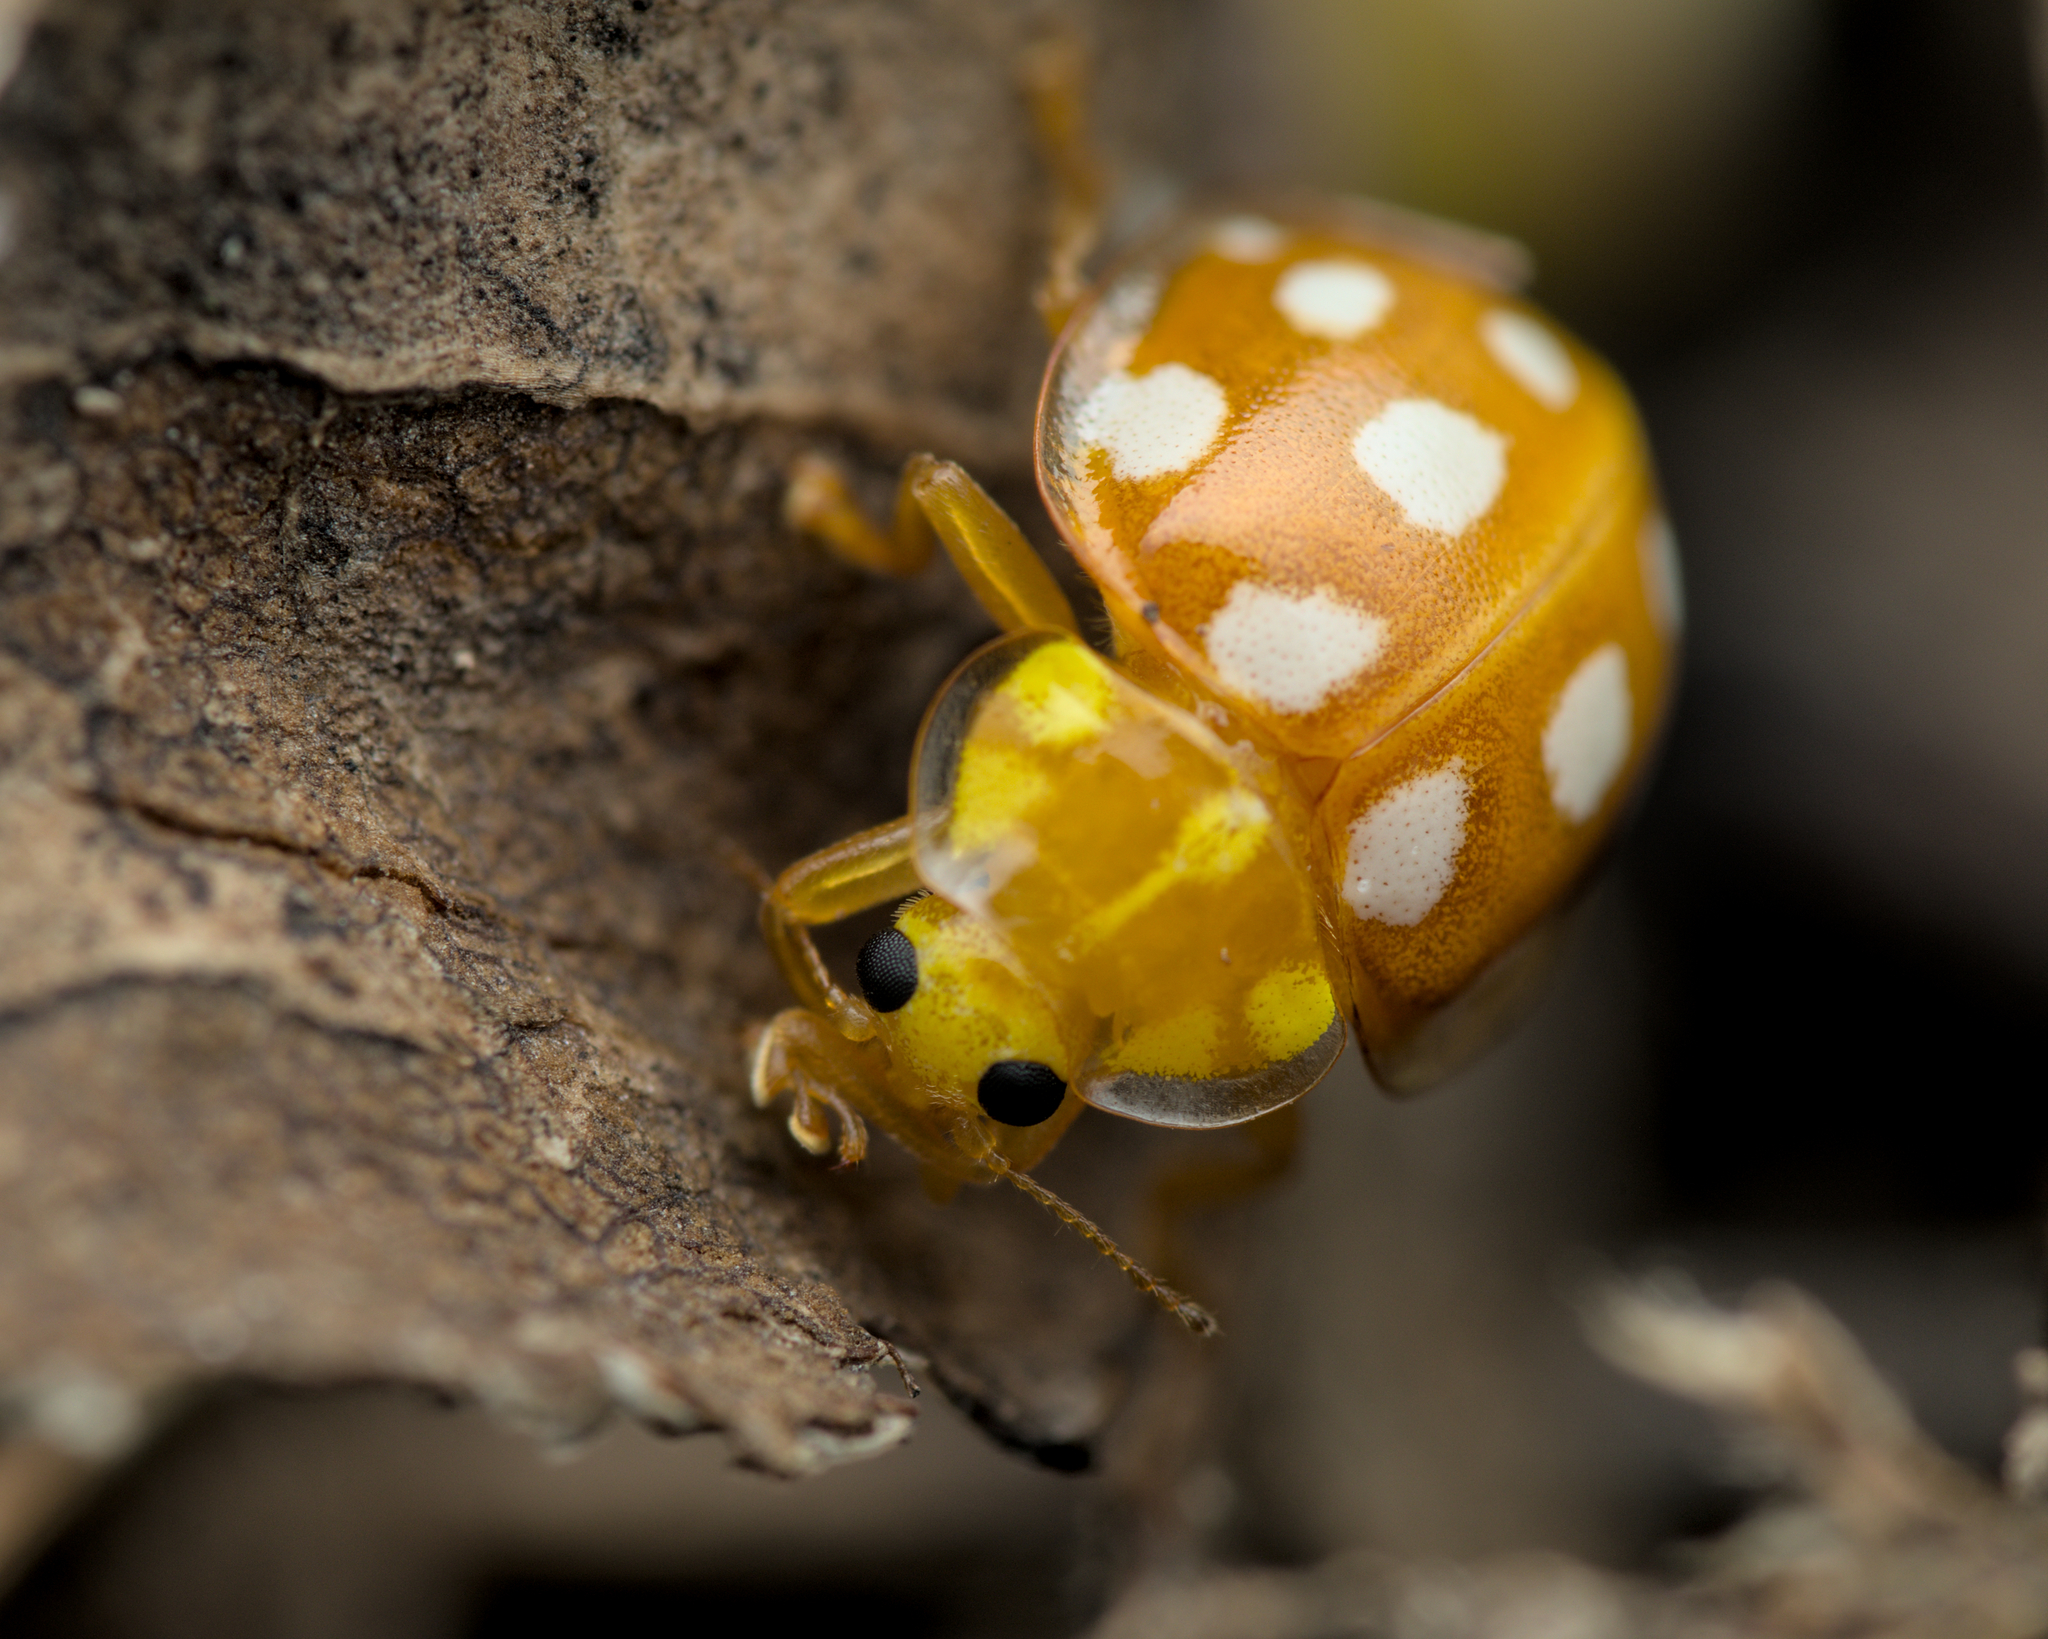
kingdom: Animalia
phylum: Arthropoda
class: Insecta
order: Coleoptera
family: Coccinellidae
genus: Halyzia
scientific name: Halyzia sedecimguttata
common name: Orange ladybird
